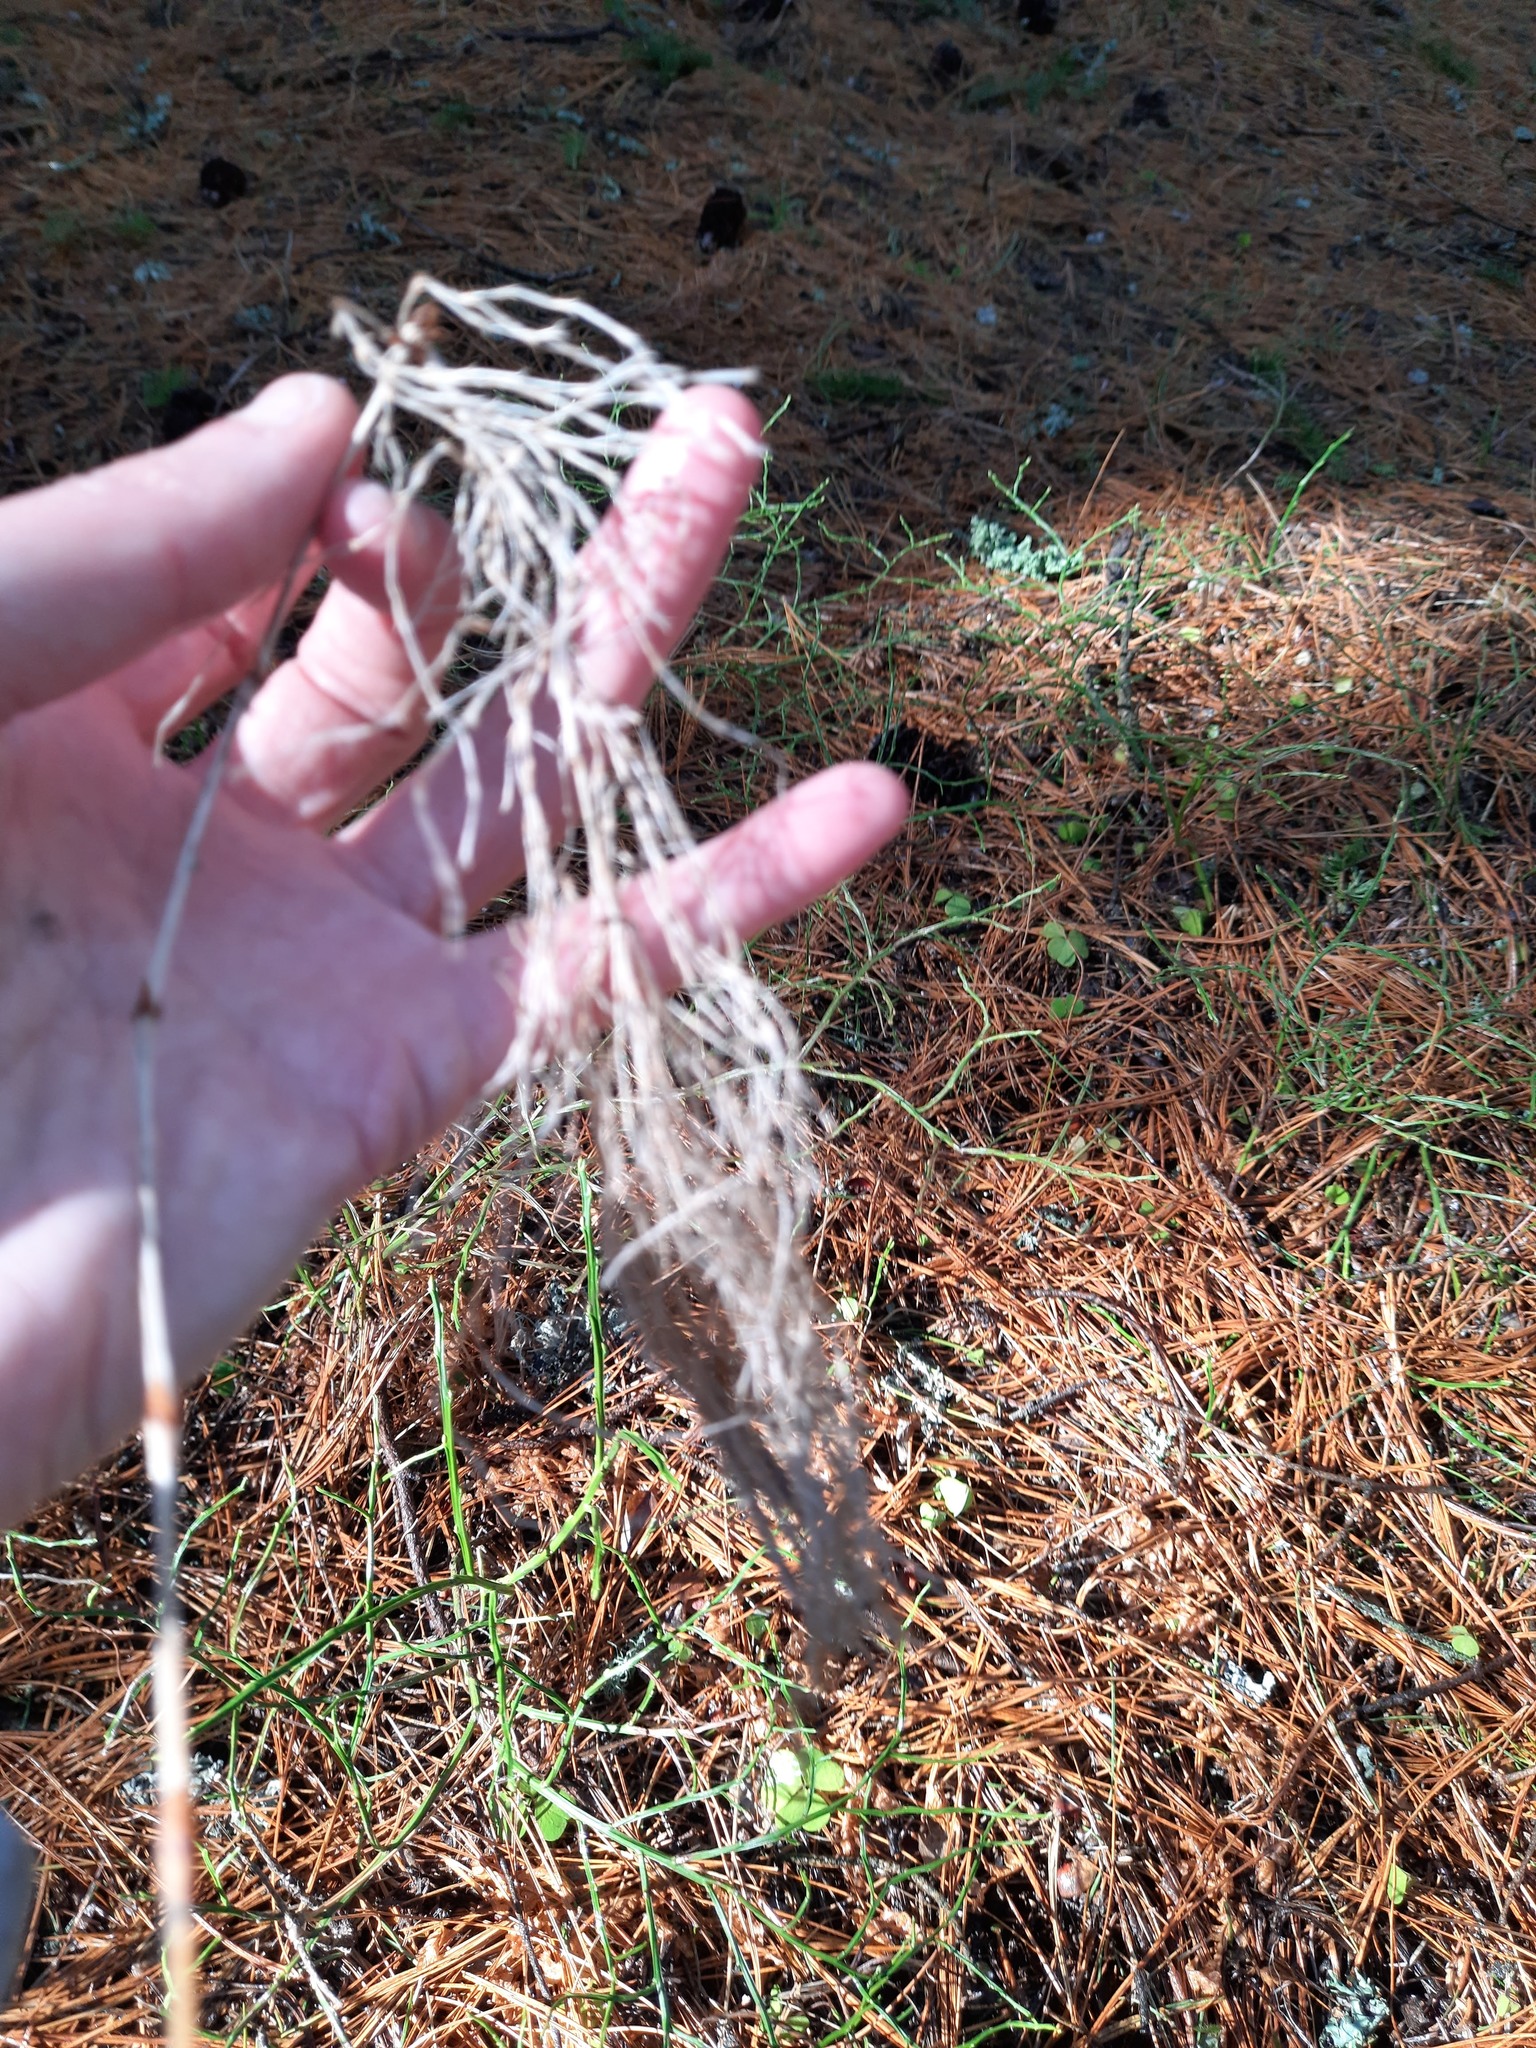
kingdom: Plantae
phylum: Tracheophyta
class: Polypodiopsida
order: Equisetales
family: Equisetaceae
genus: Equisetum
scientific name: Equisetum sylvaticum
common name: Wood horsetail
